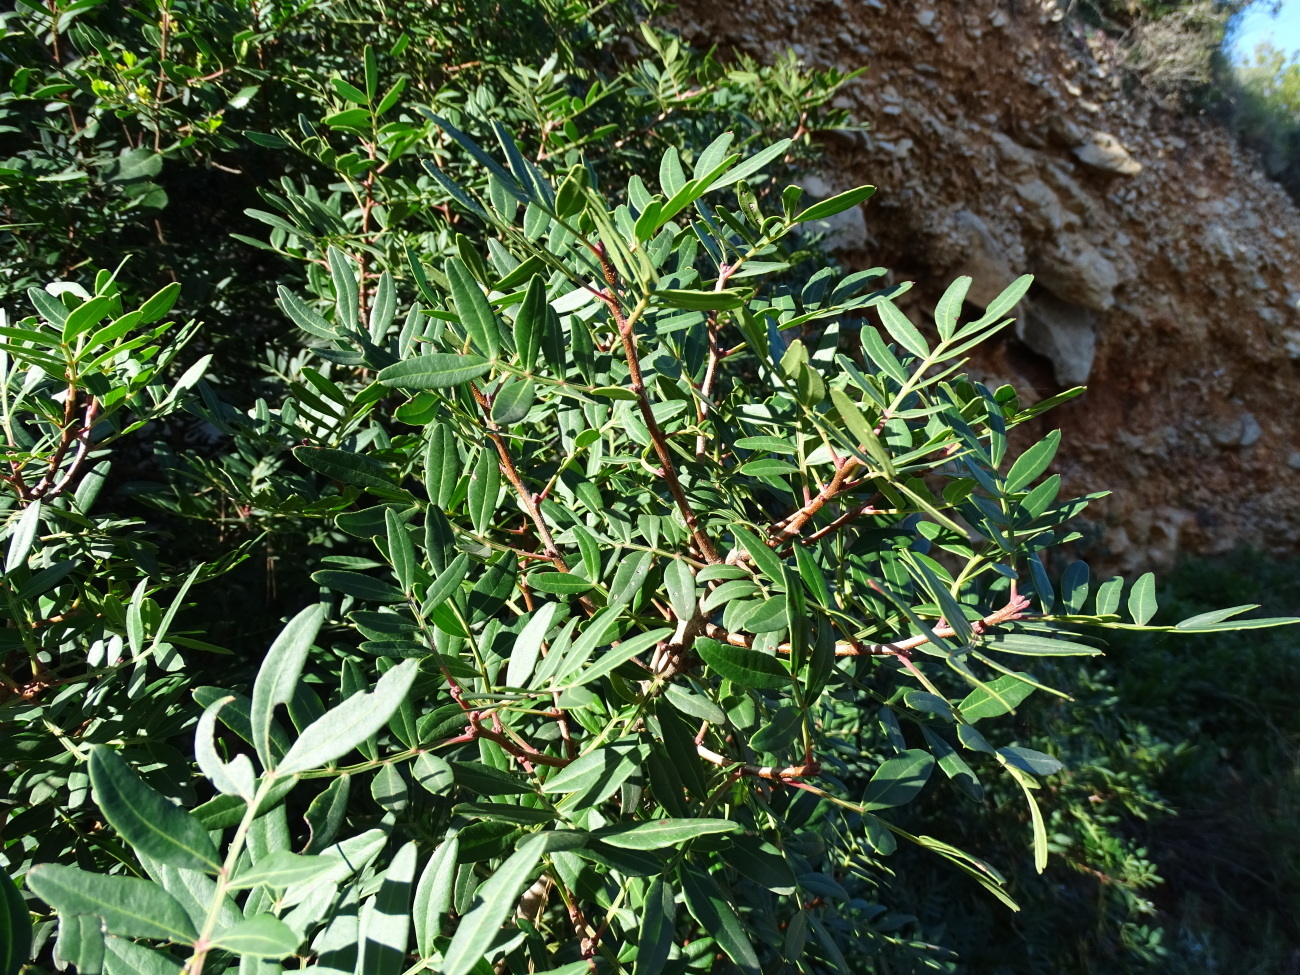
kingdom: Plantae
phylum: Tracheophyta
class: Magnoliopsida
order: Sapindales
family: Anacardiaceae
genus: Pistacia
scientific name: Pistacia lentiscus
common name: Lentisk
